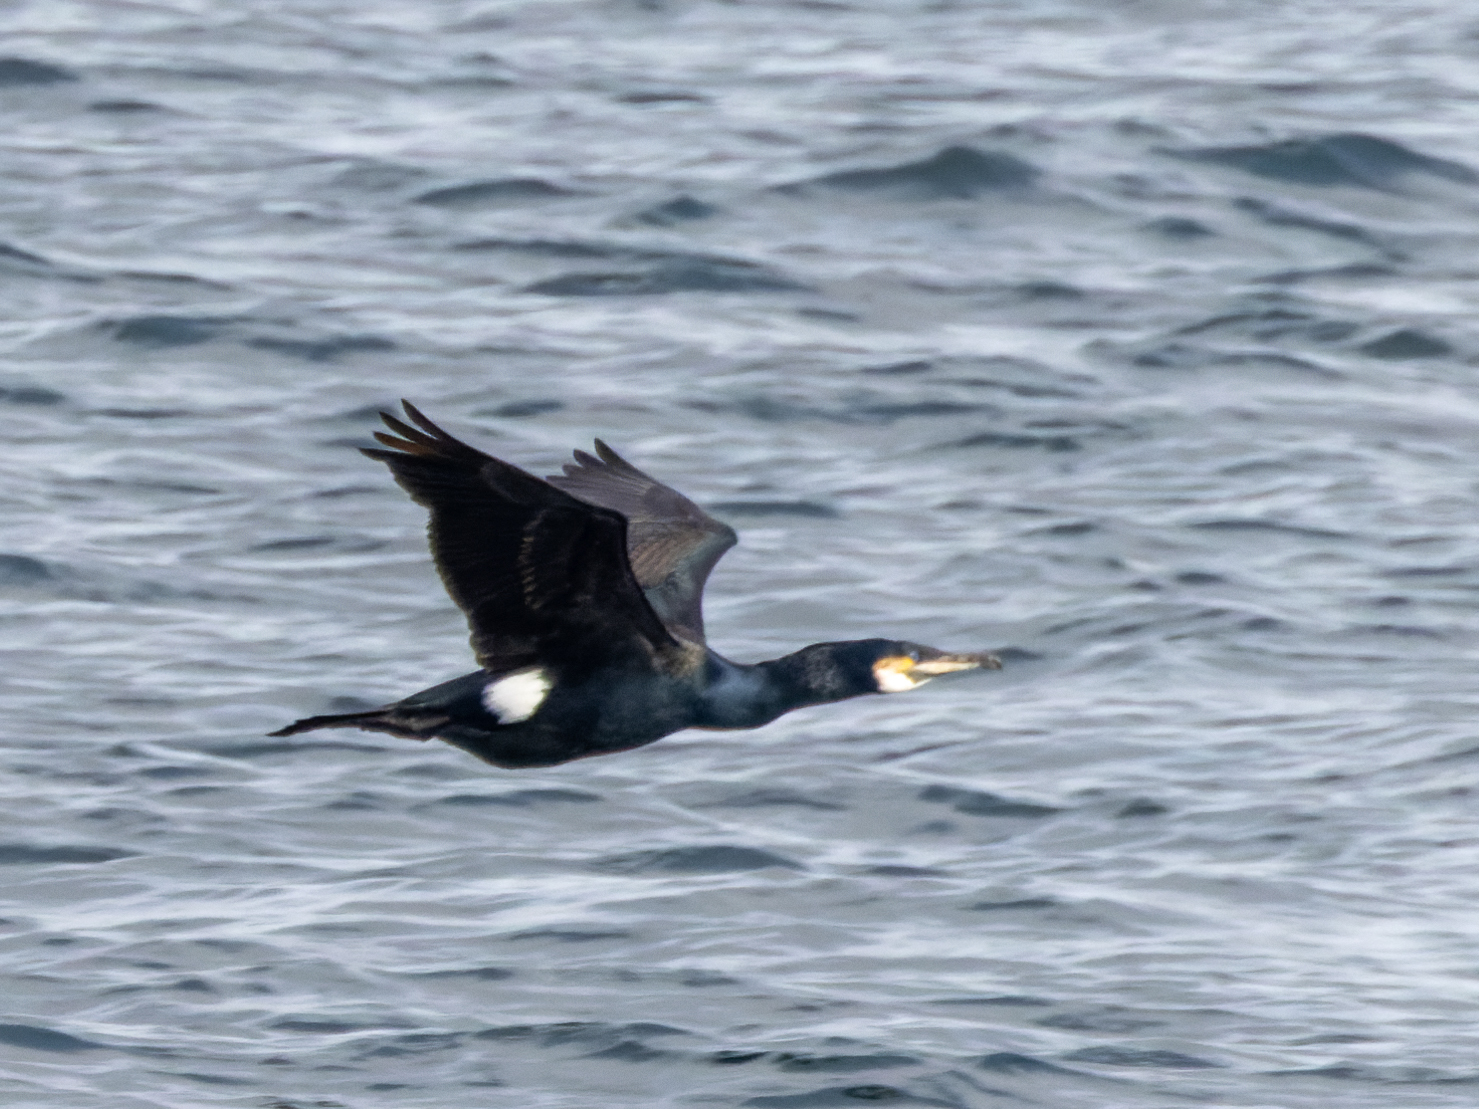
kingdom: Animalia
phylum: Chordata
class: Aves
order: Suliformes
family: Phalacrocoracidae
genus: Phalacrocorax
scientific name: Phalacrocorax carbo
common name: Great cormorant
